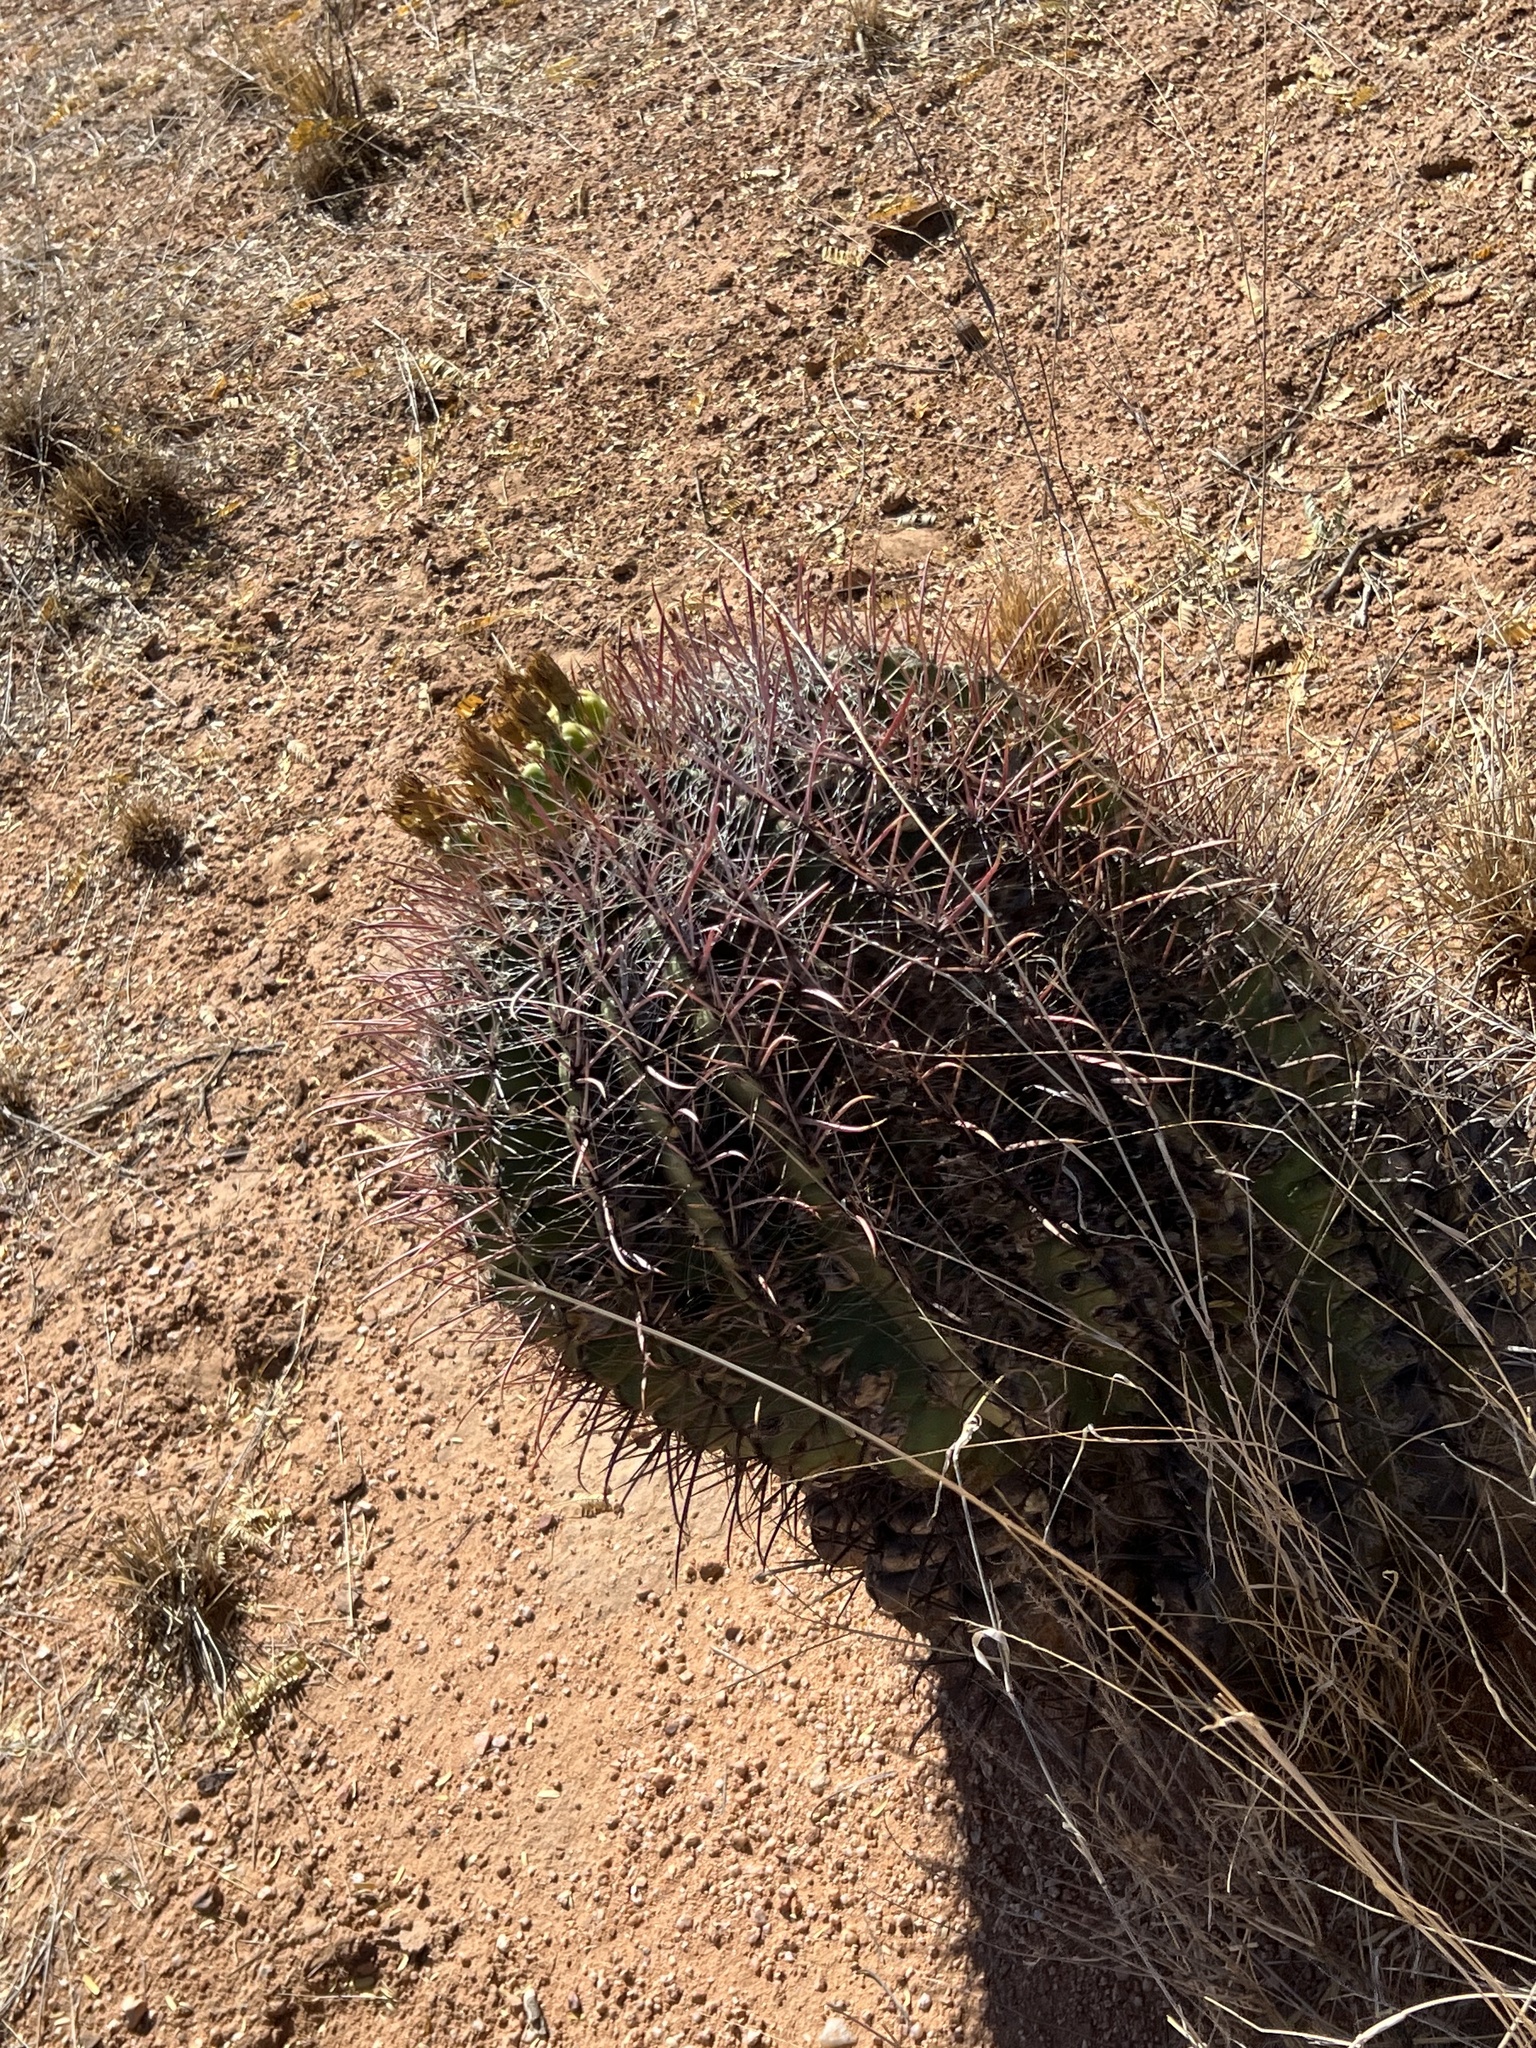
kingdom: Plantae
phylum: Tracheophyta
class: Magnoliopsida
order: Caryophyllales
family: Cactaceae
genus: Ferocactus
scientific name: Ferocactus wislizeni
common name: Candy barrel cactus
